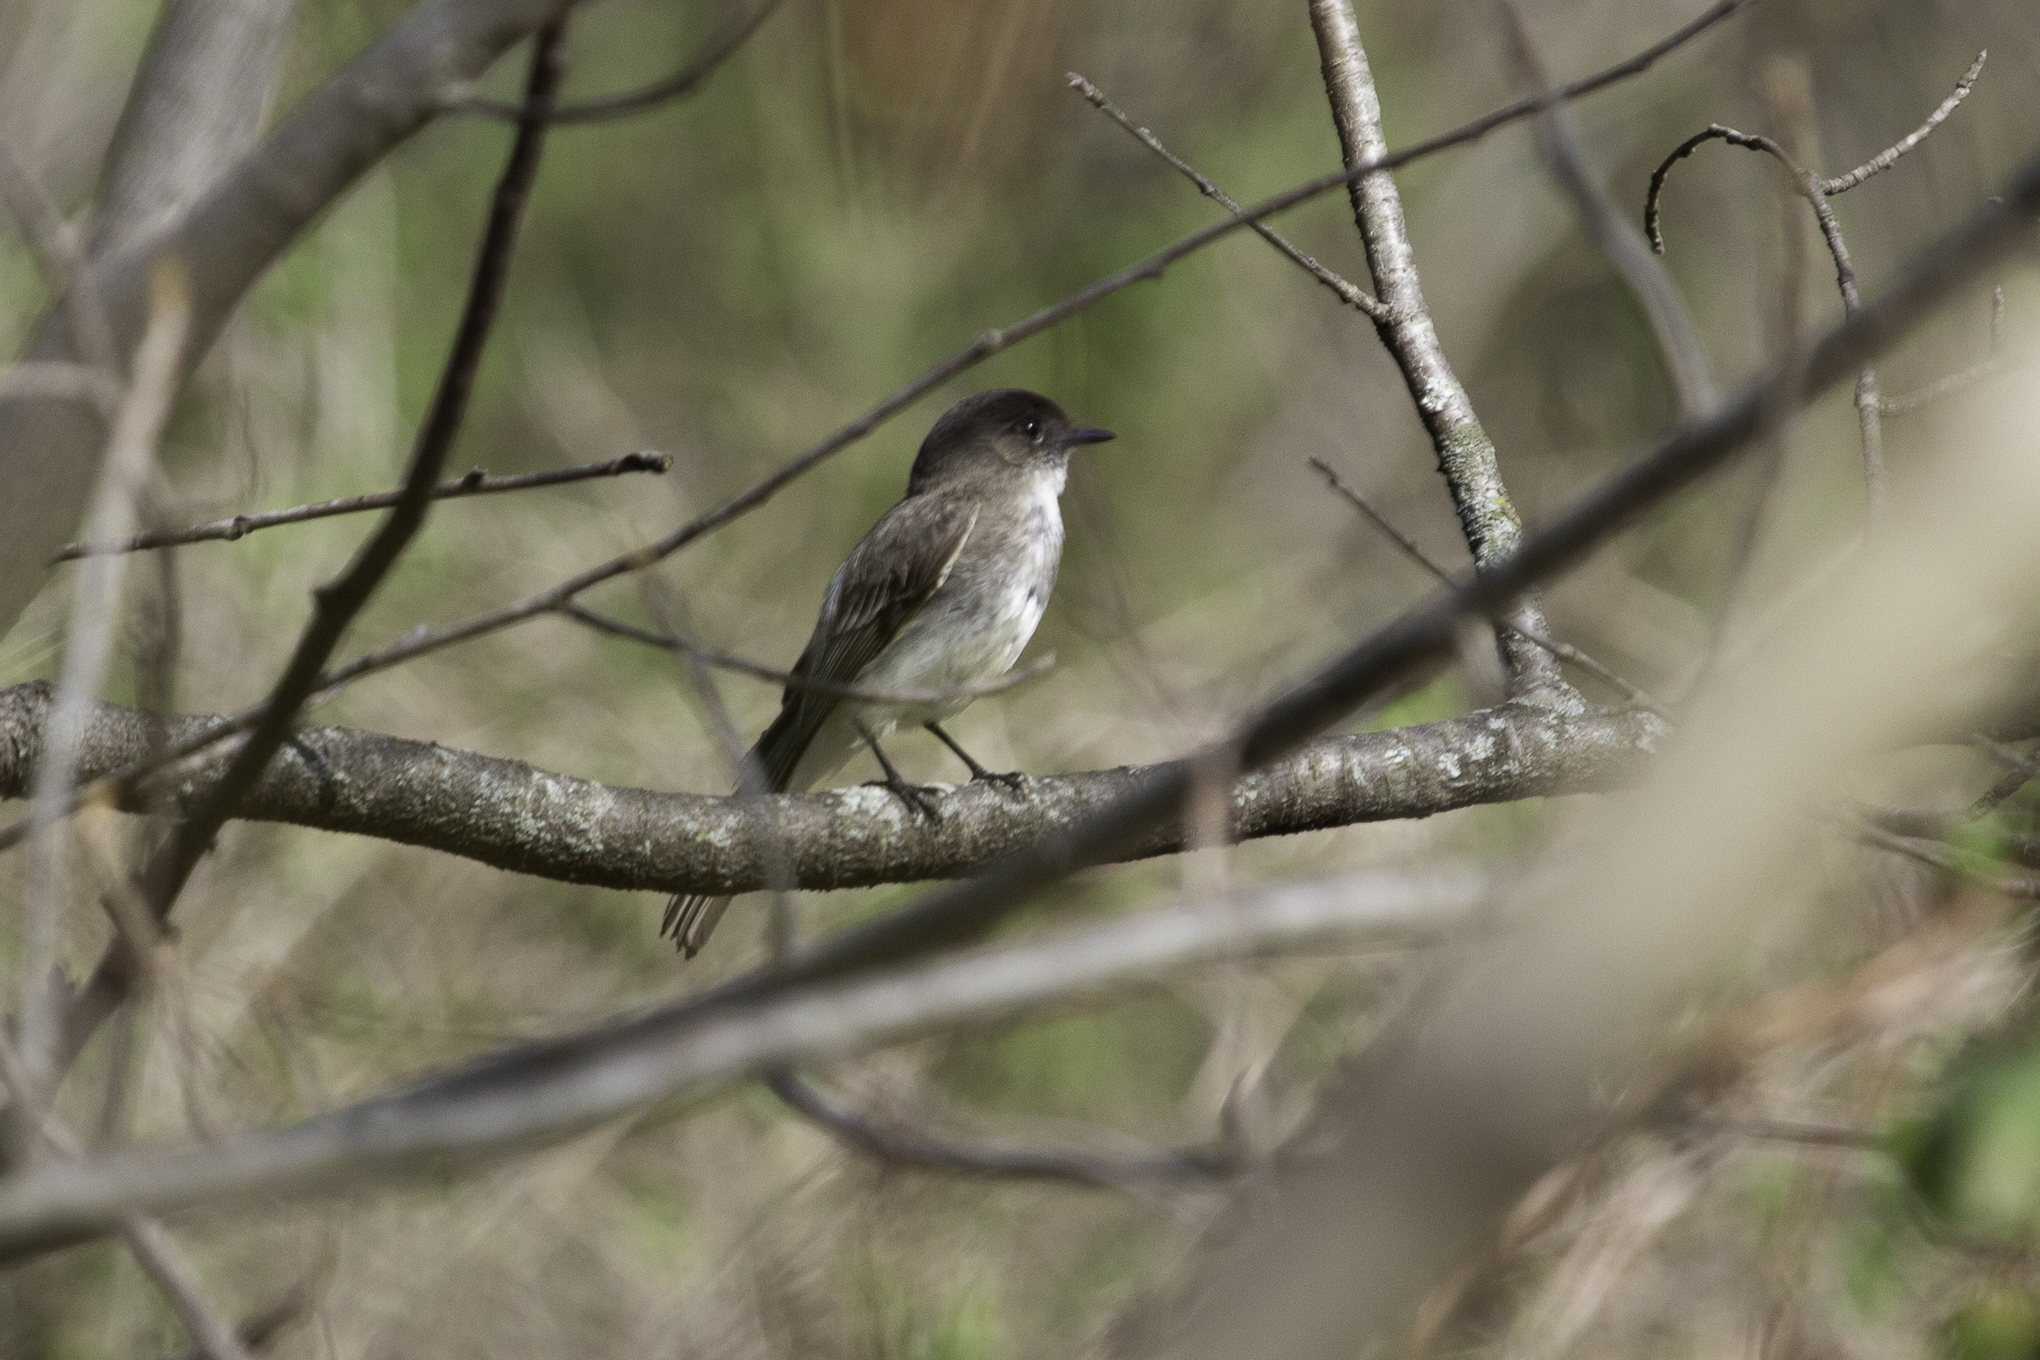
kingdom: Animalia
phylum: Chordata
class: Aves
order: Passeriformes
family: Tyrannidae
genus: Sayornis
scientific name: Sayornis phoebe
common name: Eastern phoebe
